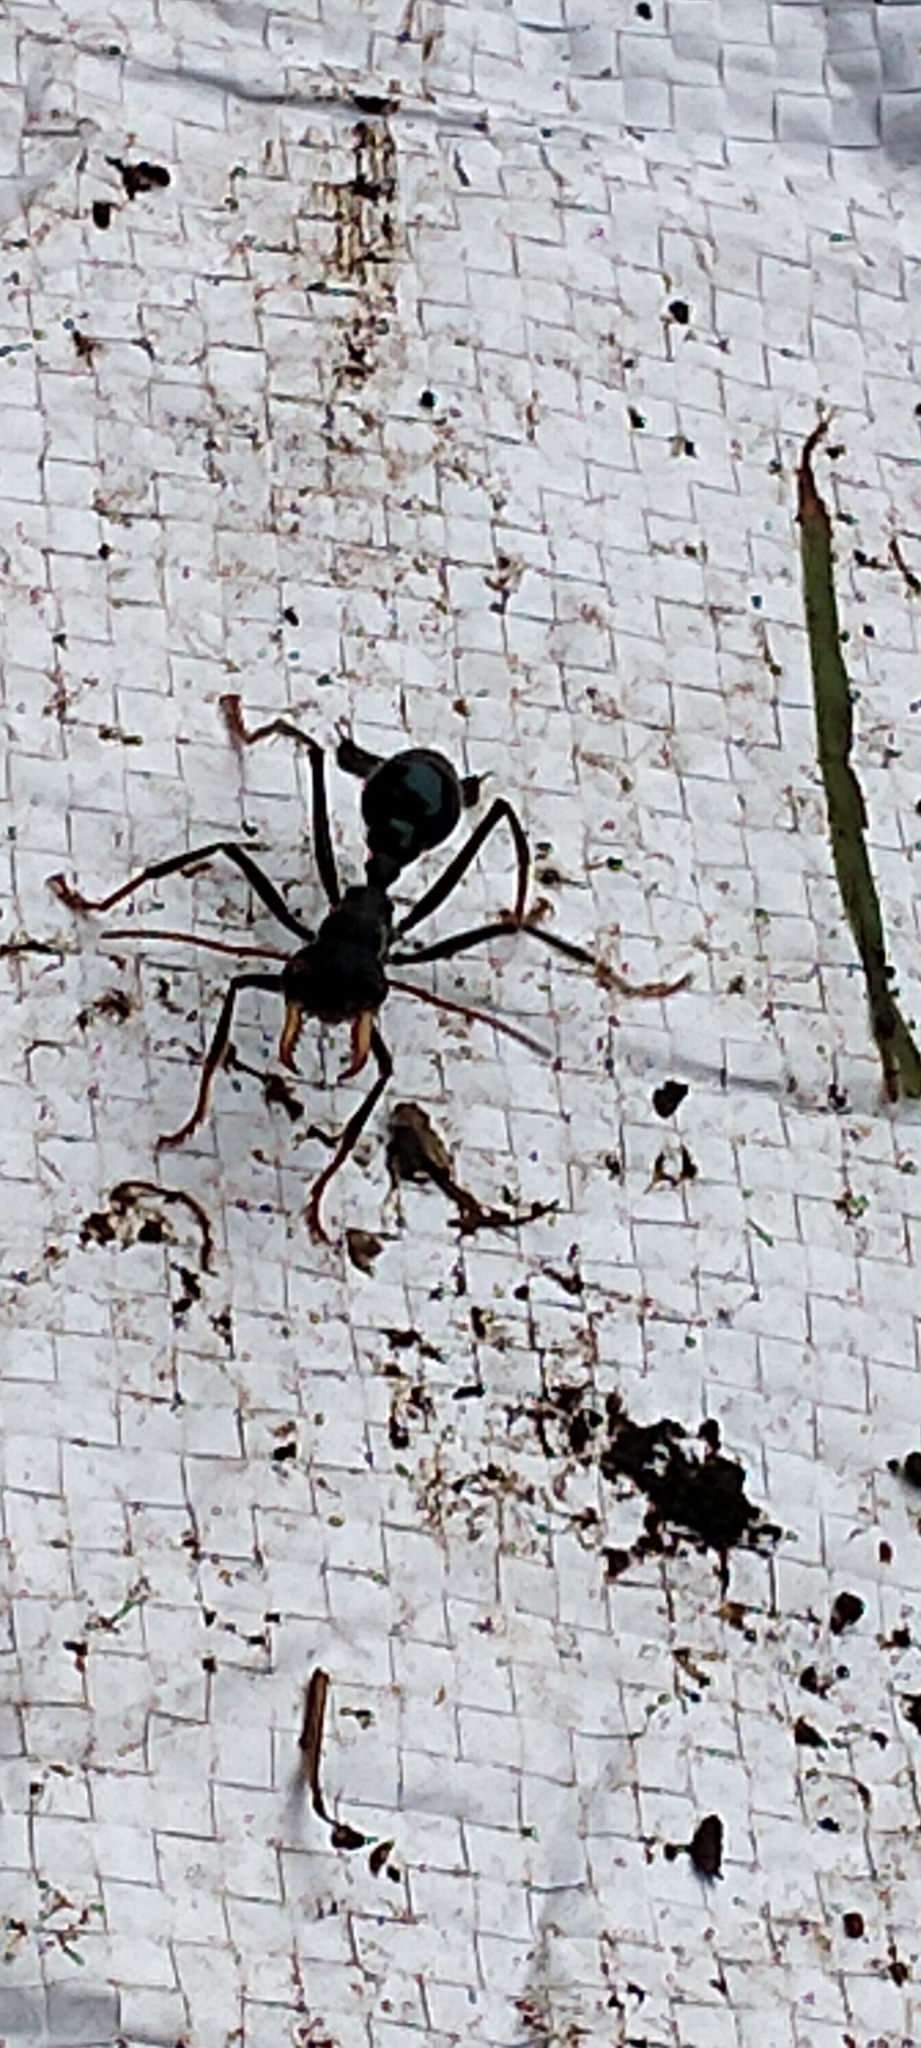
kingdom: Animalia
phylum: Arthropoda
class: Insecta
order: Hymenoptera
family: Formicidae
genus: Myrmecia
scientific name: Myrmecia tarsata
